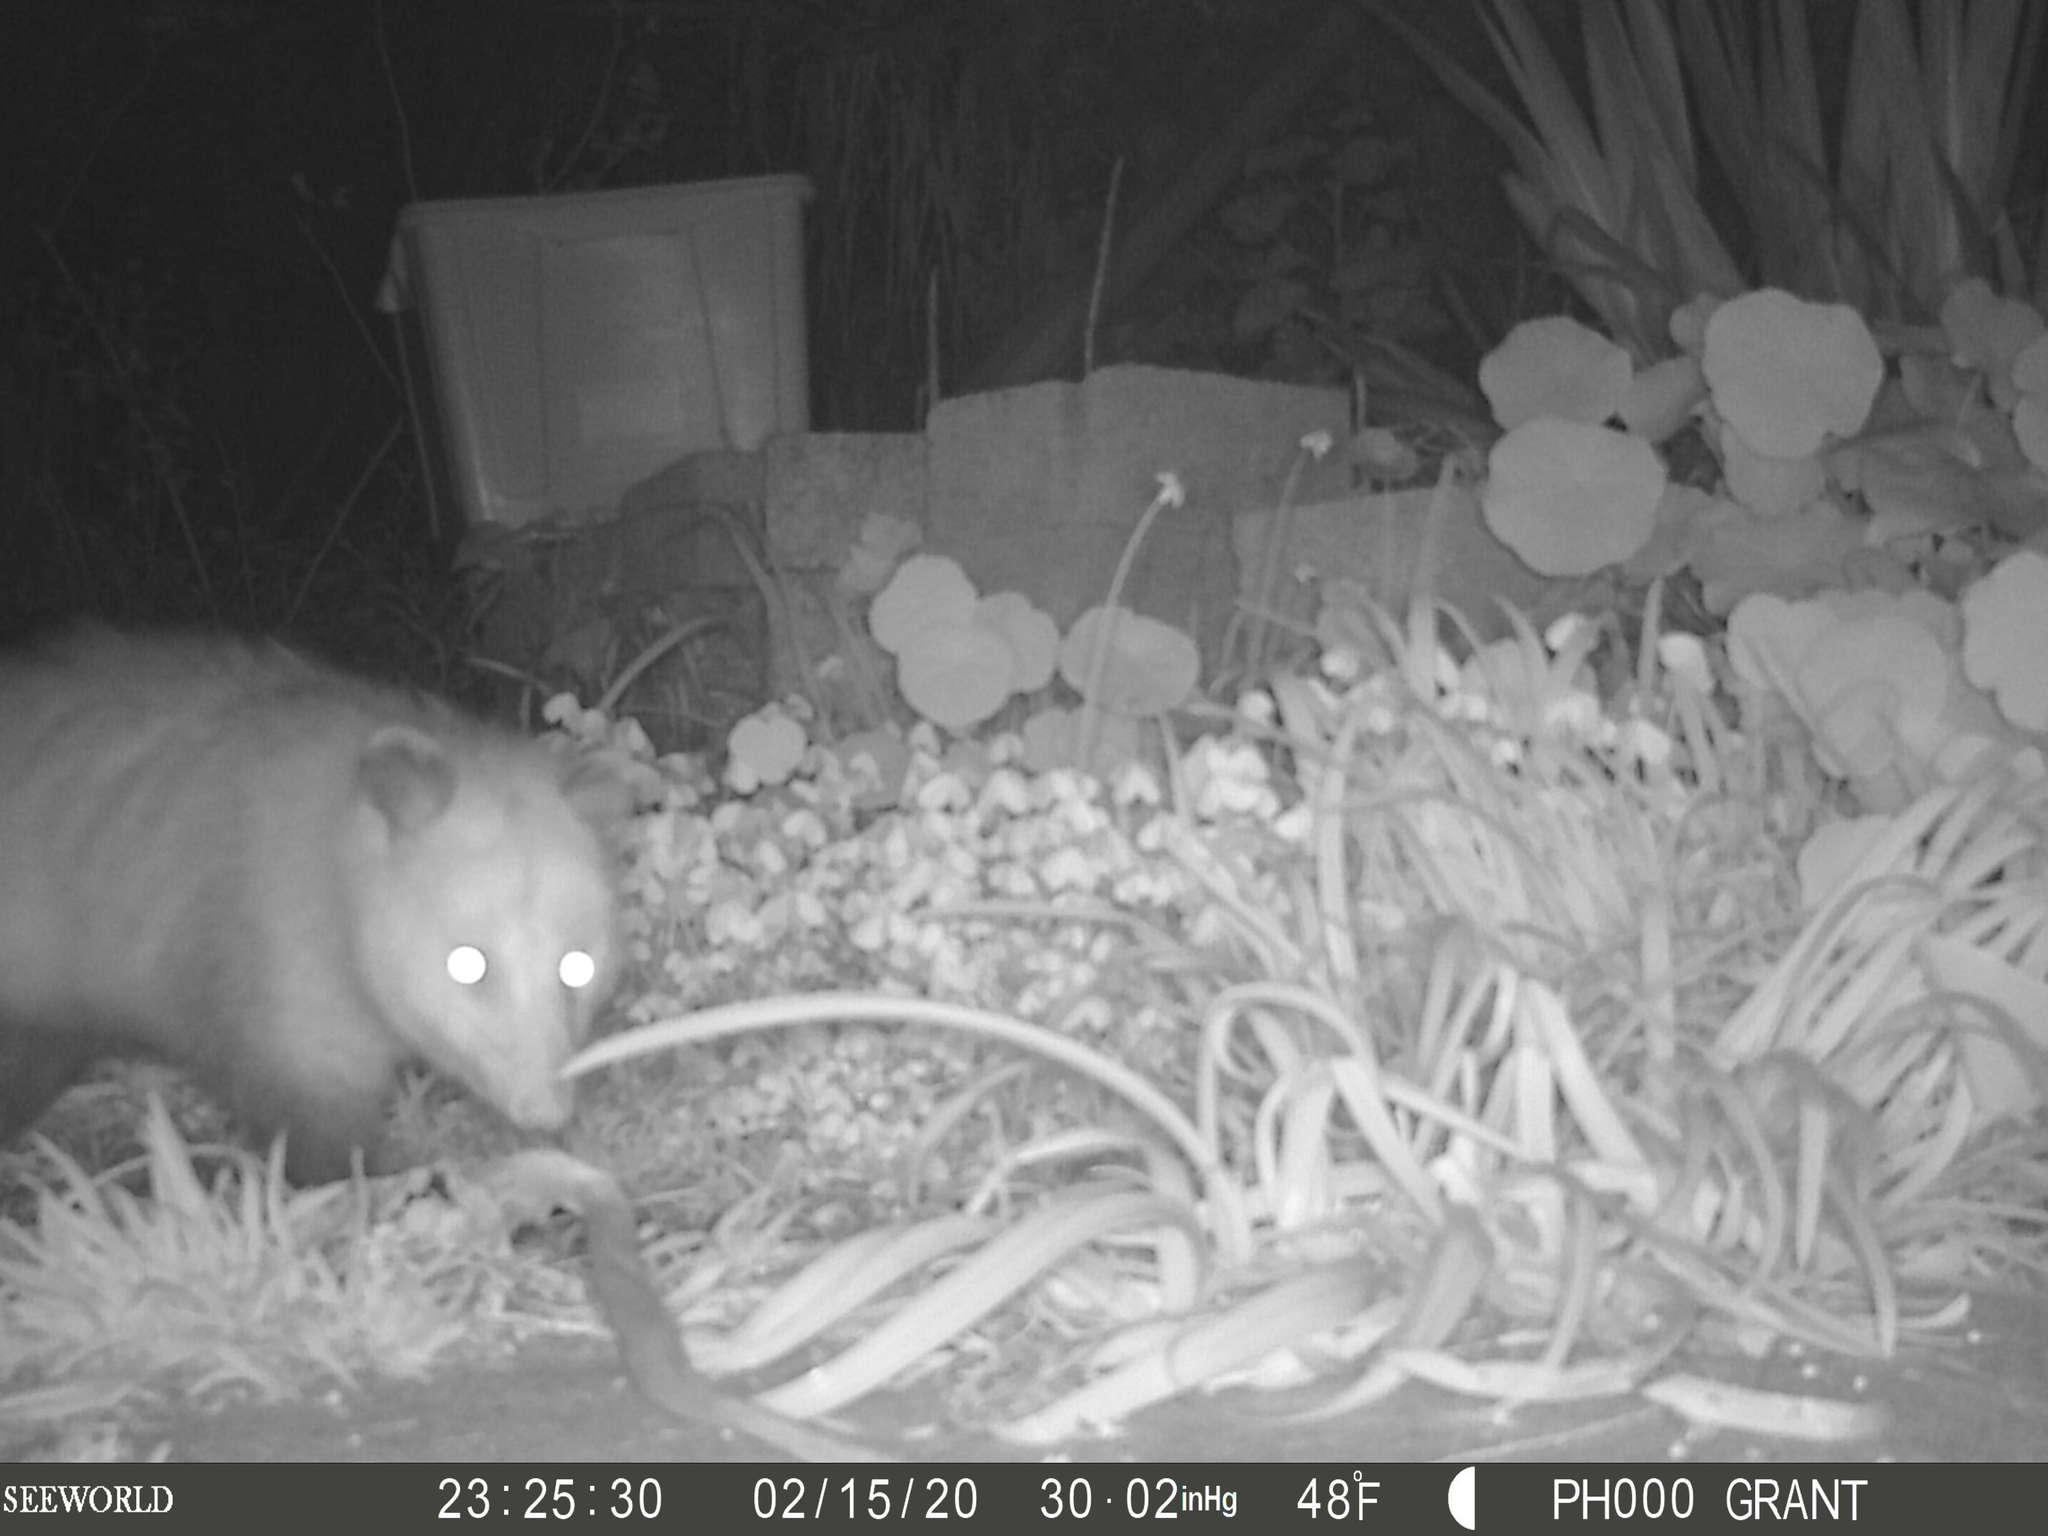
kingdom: Animalia
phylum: Chordata
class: Mammalia
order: Didelphimorphia
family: Didelphidae
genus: Didelphis
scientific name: Didelphis virginiana
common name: Virginia opossum
